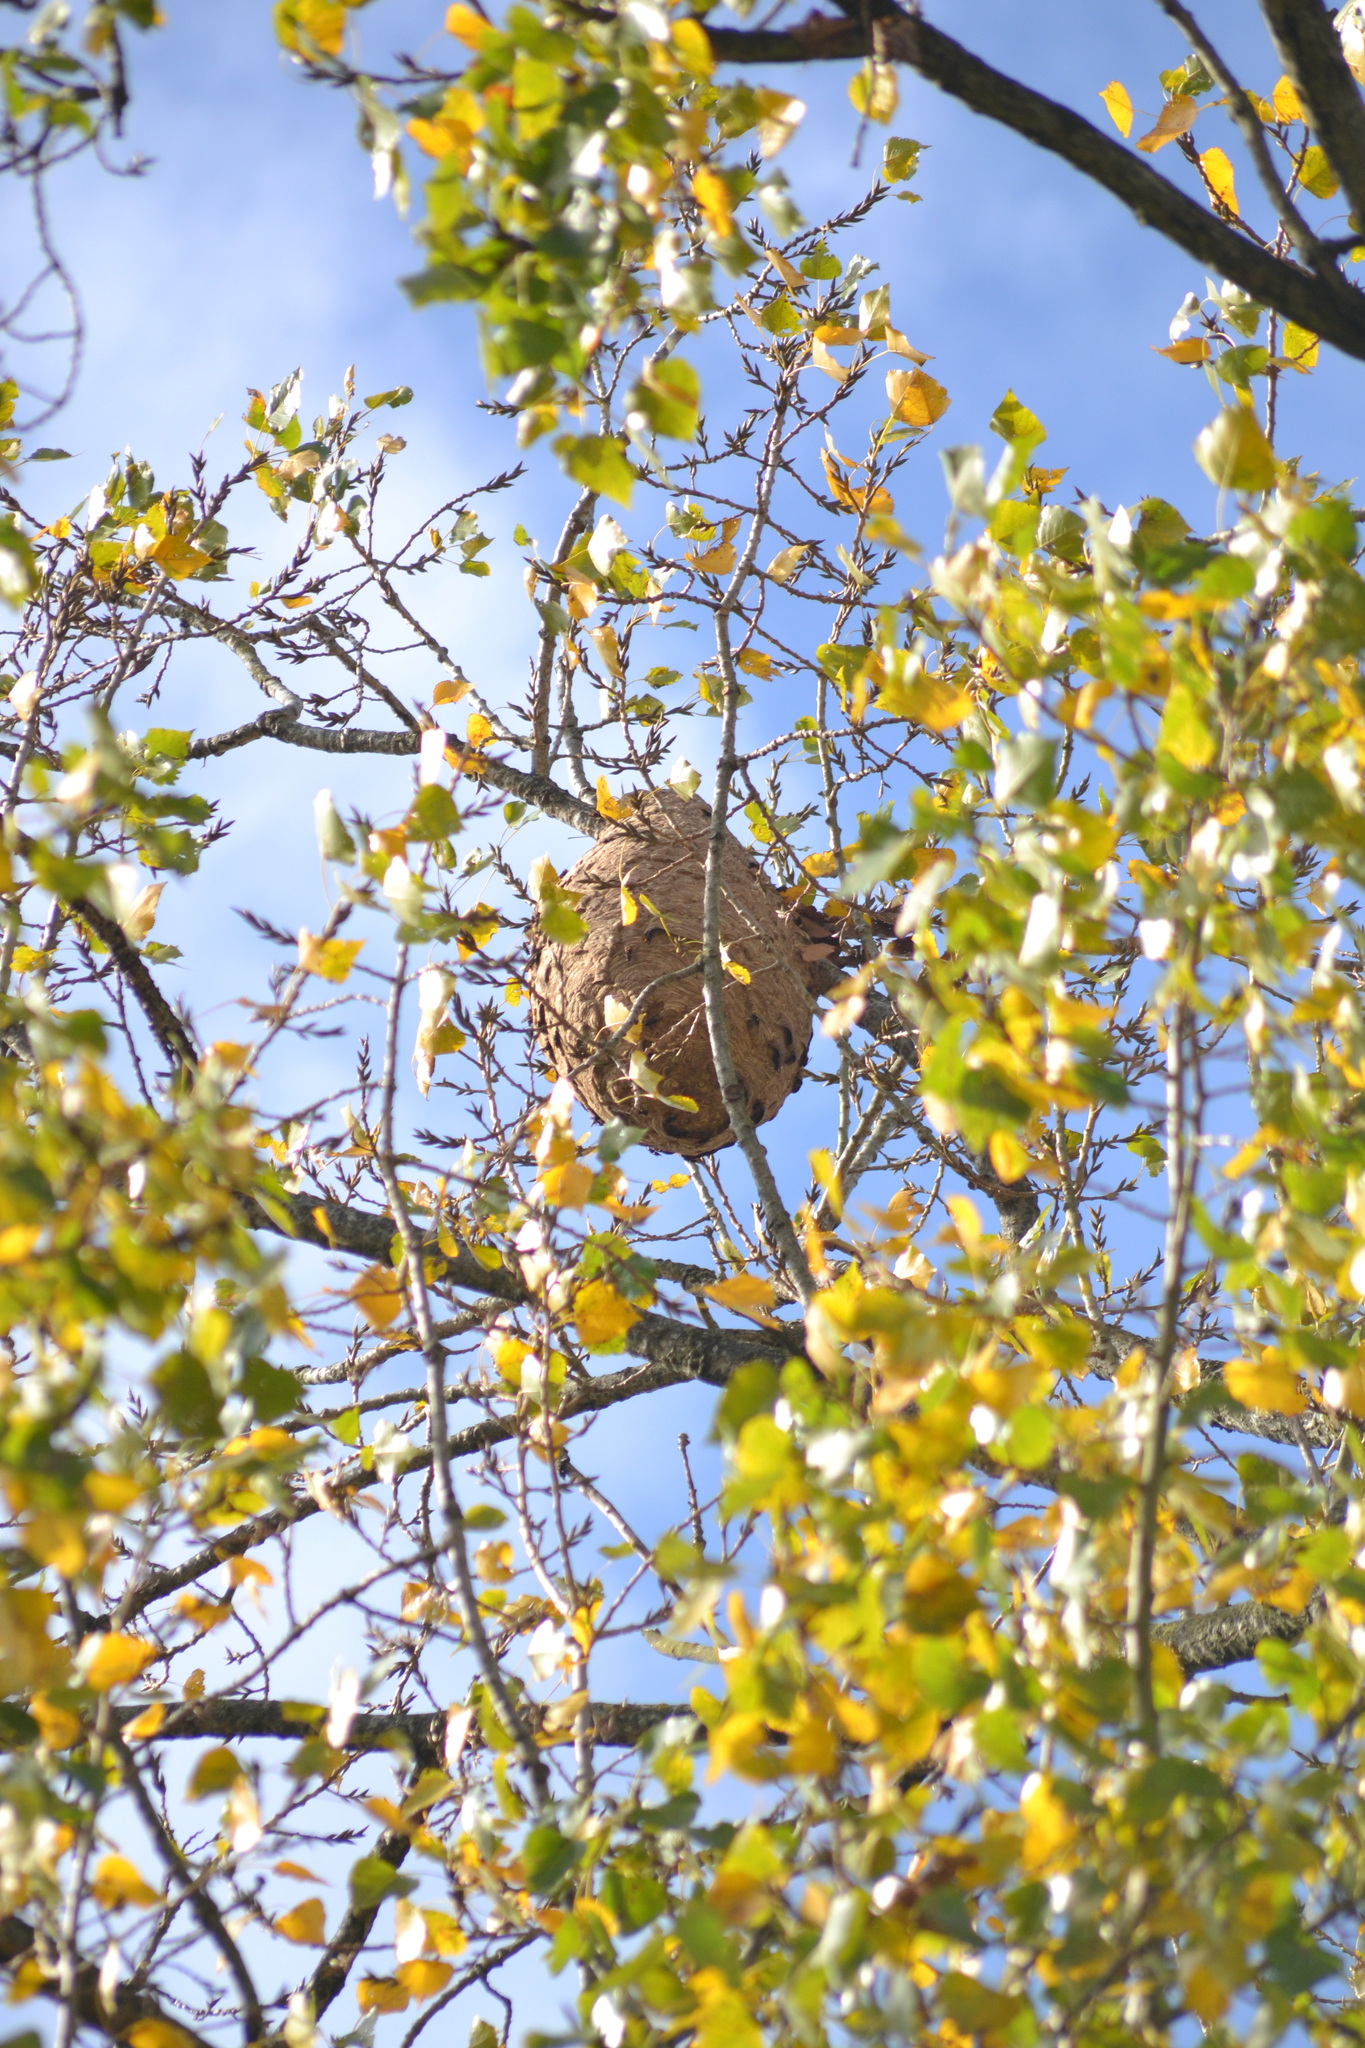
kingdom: Animalia
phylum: Arthropoda
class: Insecta
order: Hymenoptera
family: Vespidae
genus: Vespa
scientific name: Vespa velutina
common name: Asian hornet
